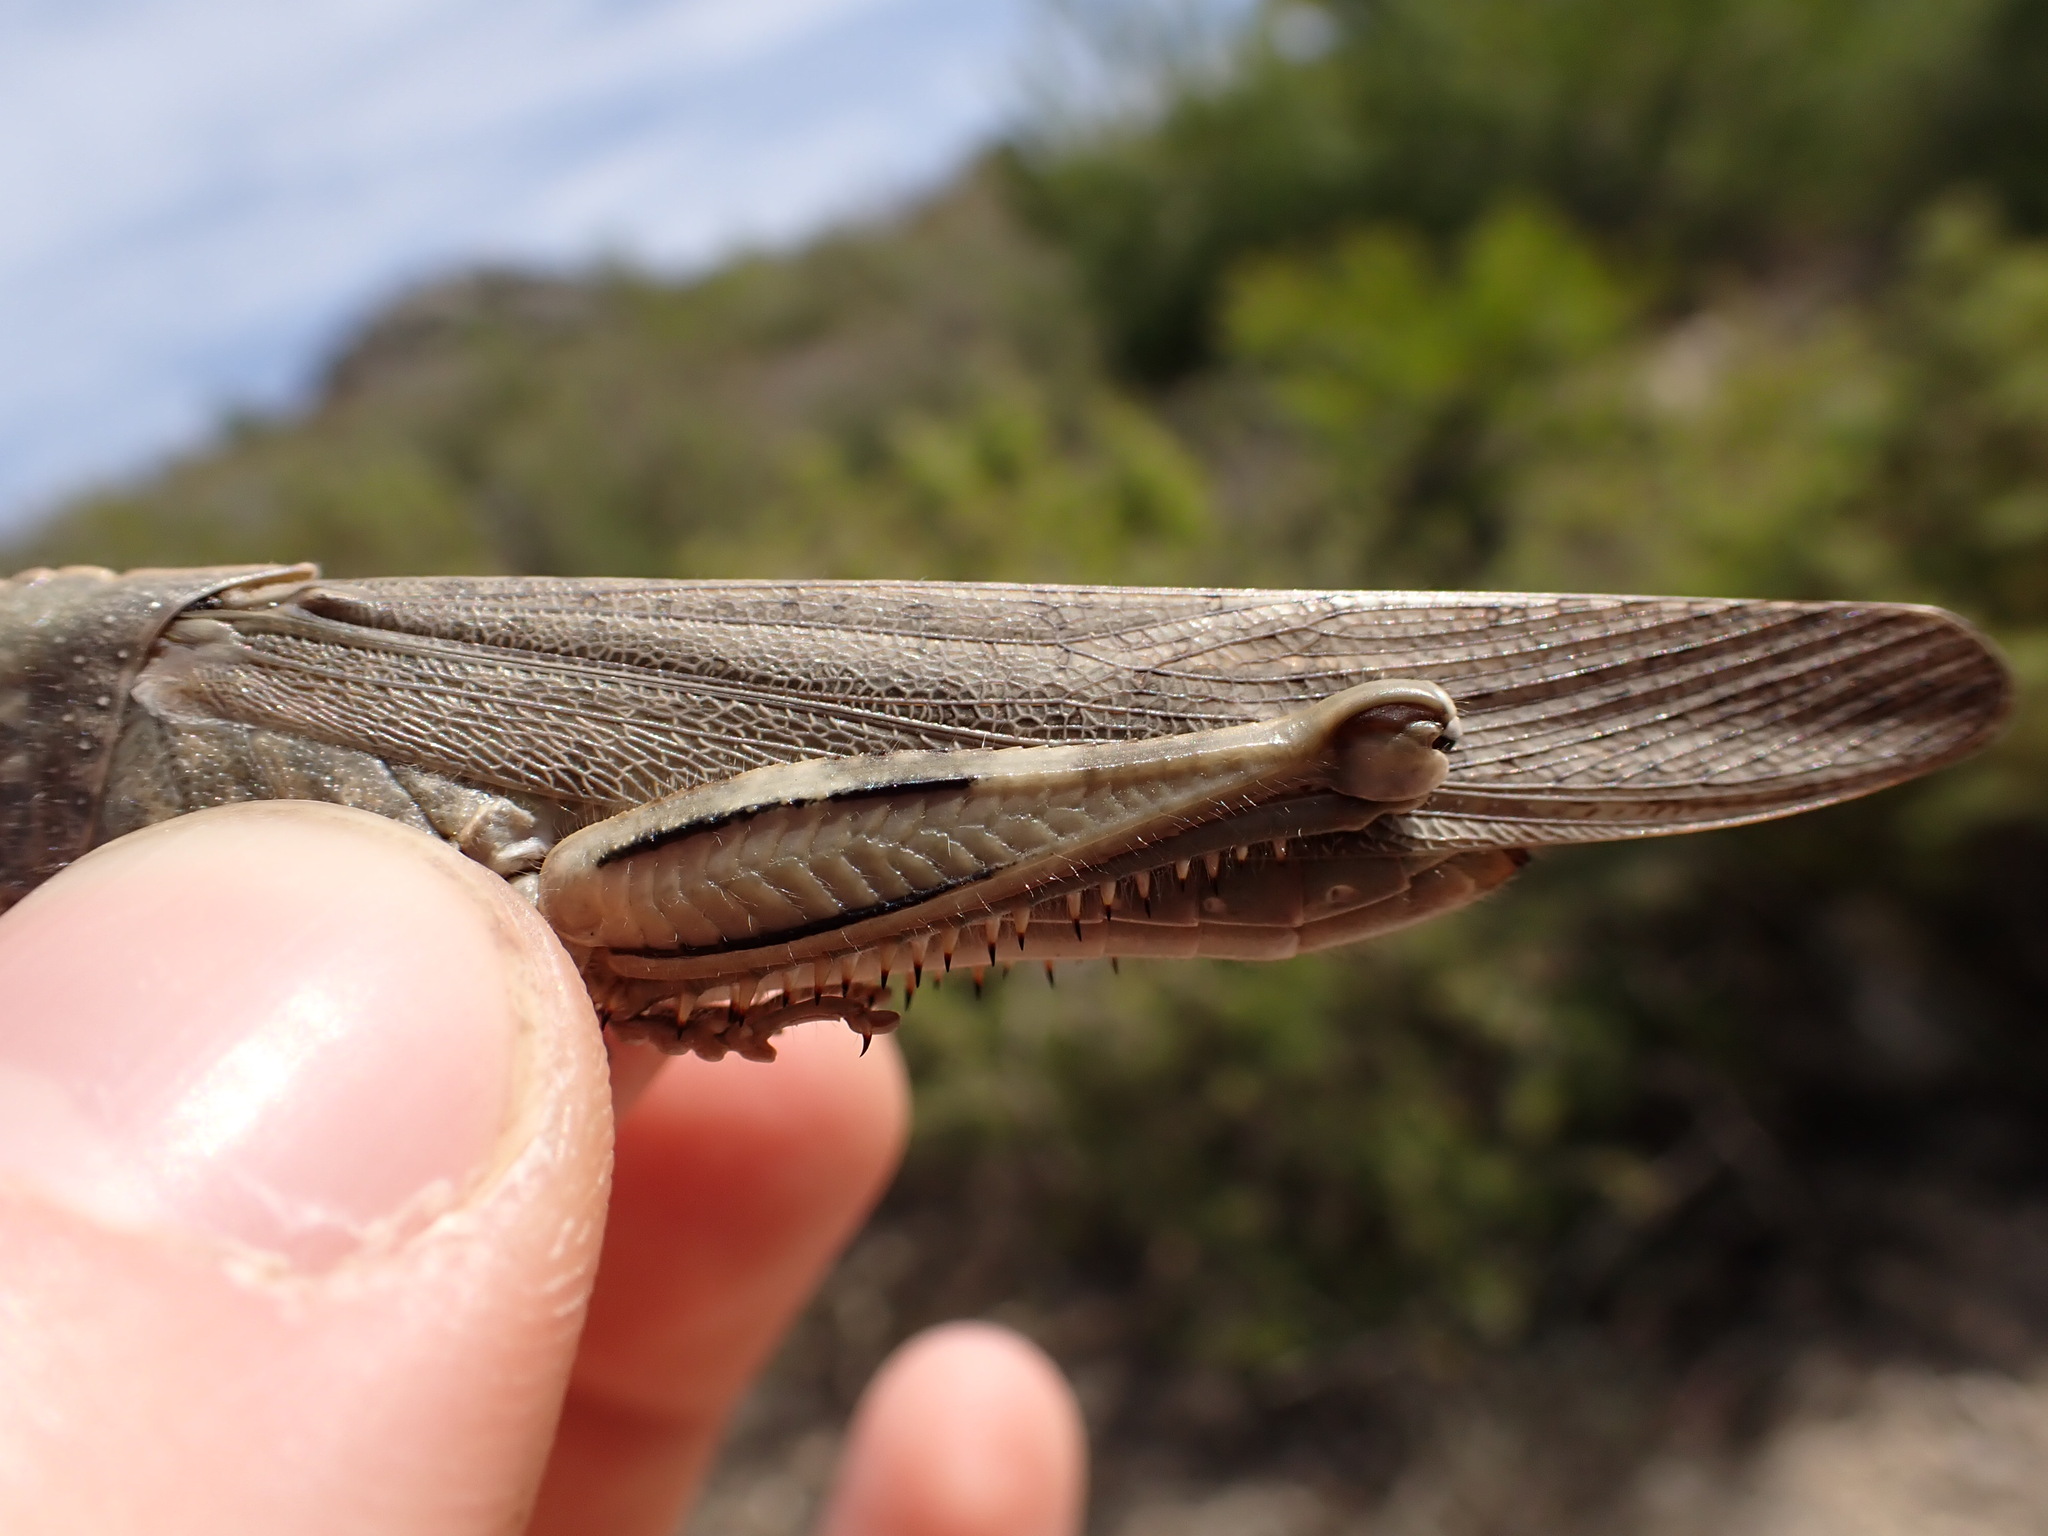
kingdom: Animalia
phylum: Arthropoda
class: Insecta
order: Orthoptera
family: Acrididae
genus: Anacridium
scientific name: Anacridium aegyptium
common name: Egyptian grasshopper
